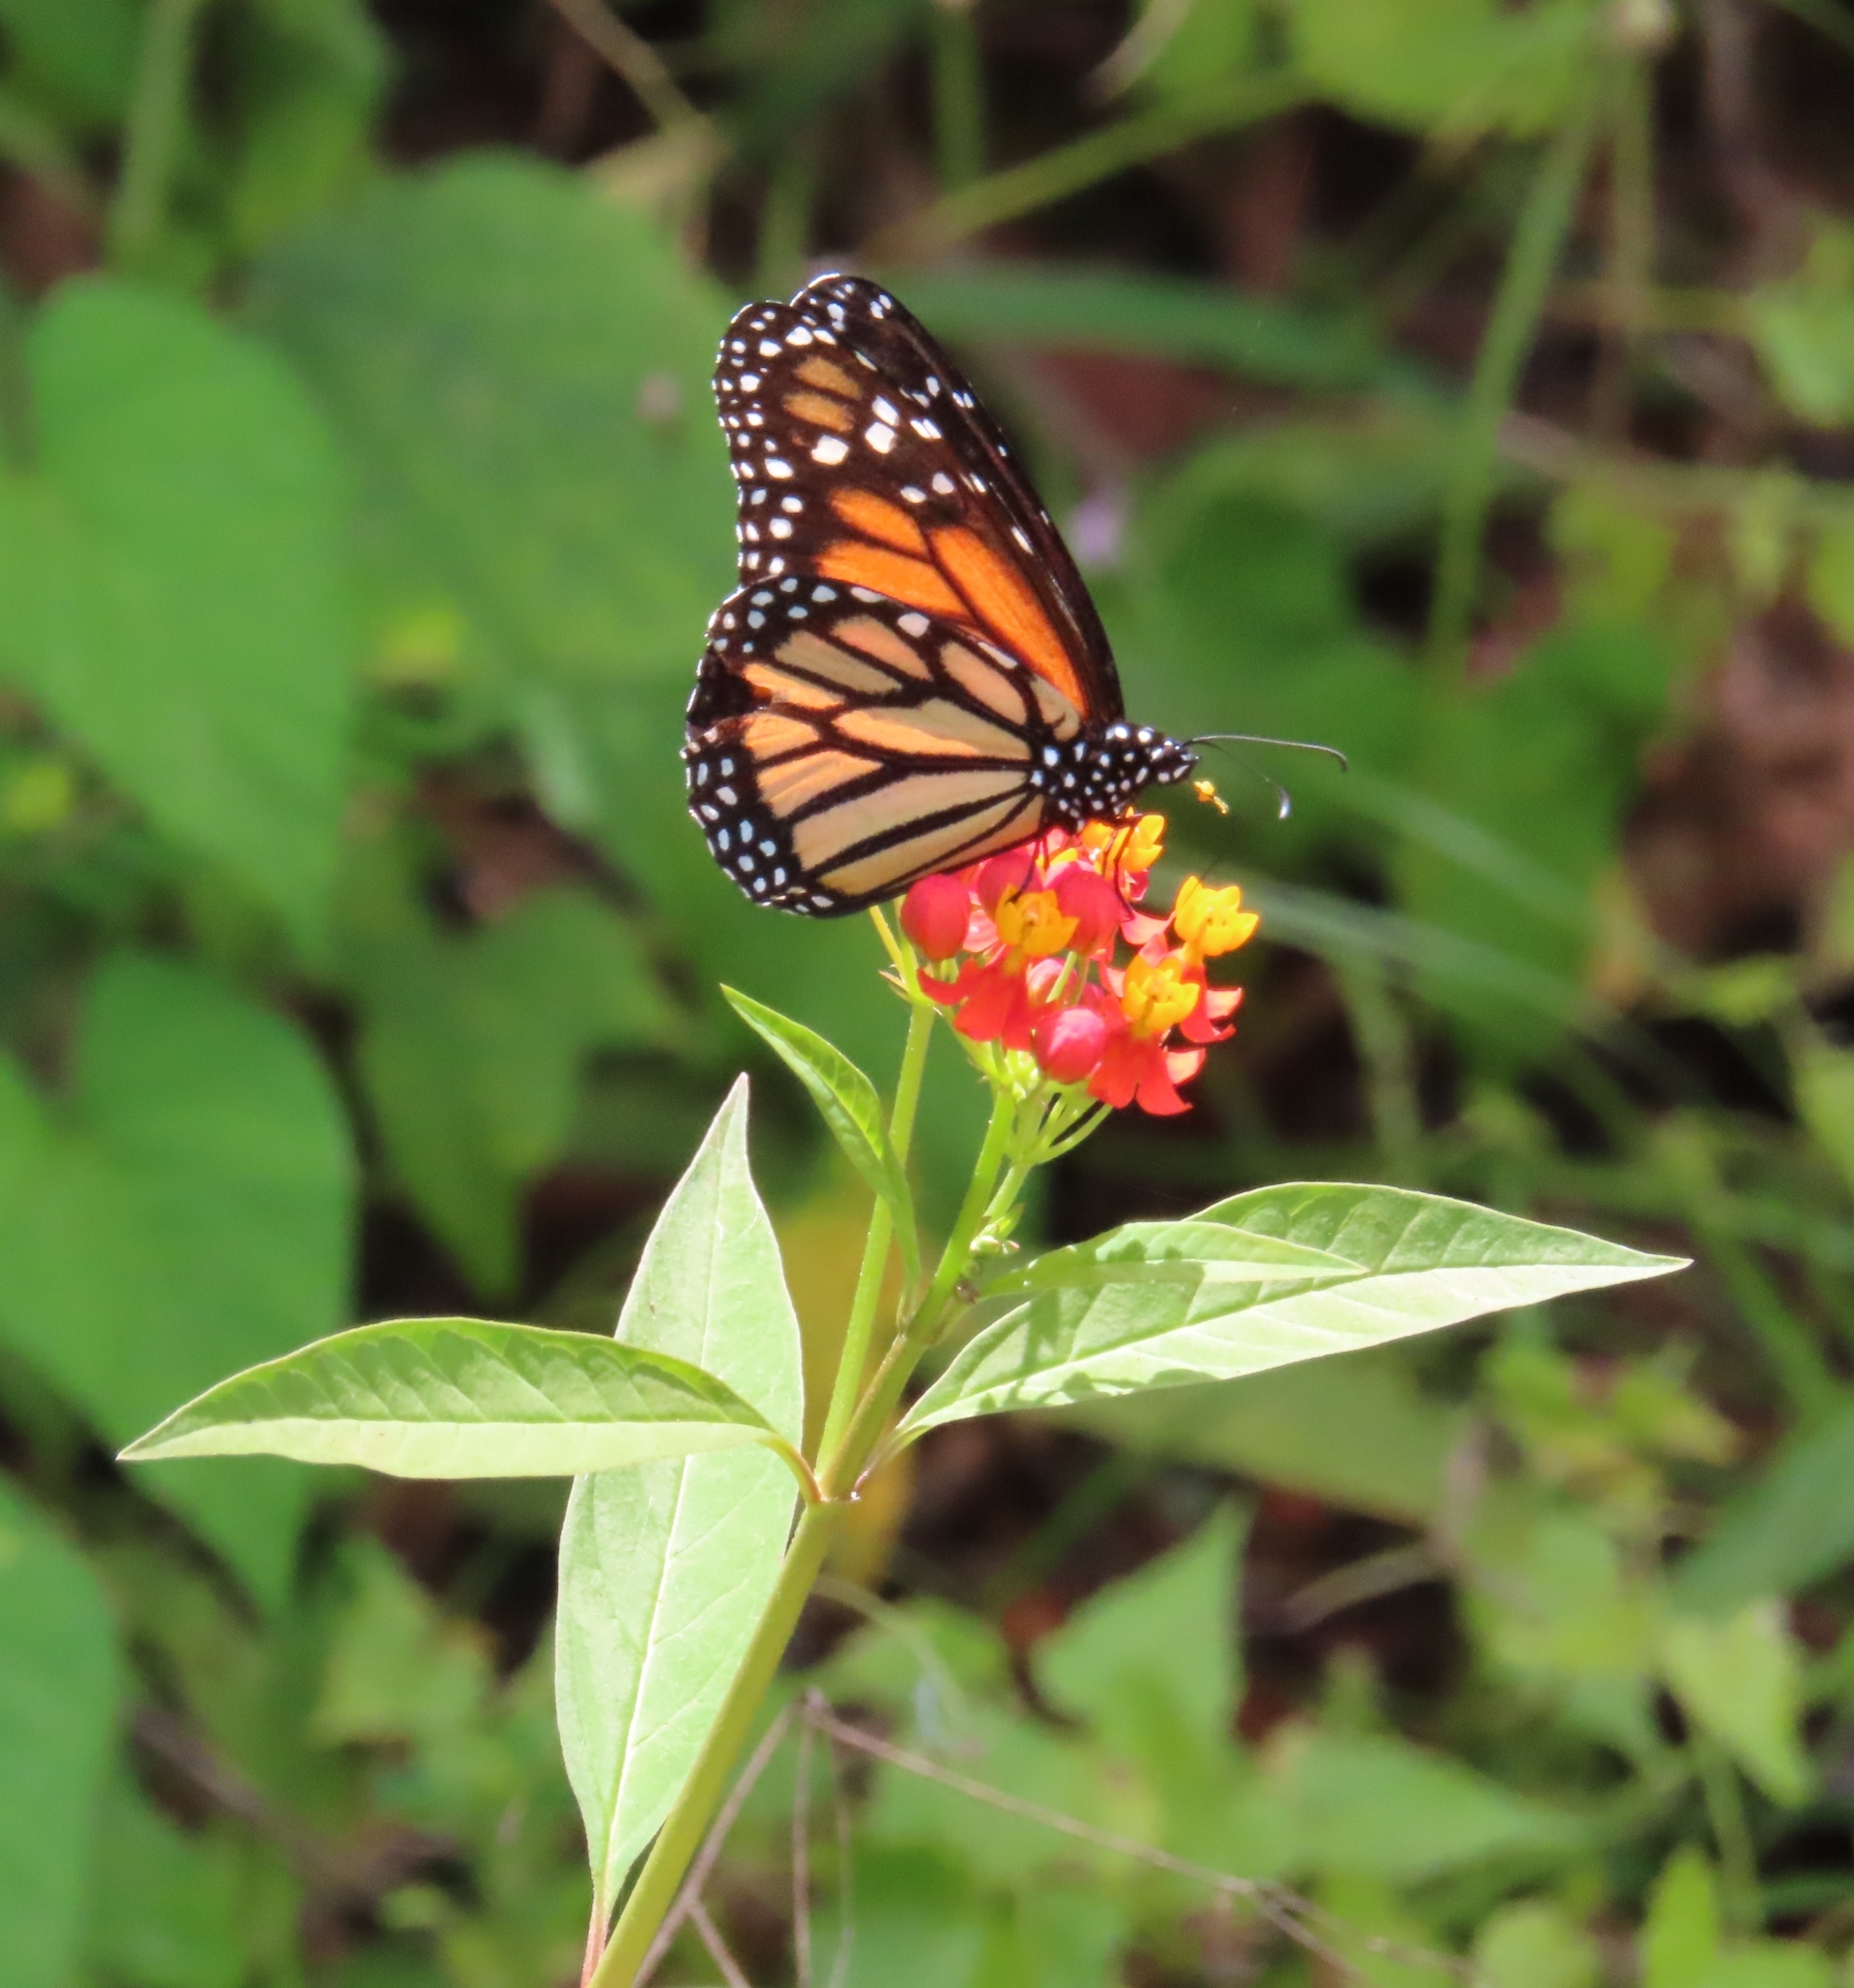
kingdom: Animalia
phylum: Arthropoda
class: Insecta
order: Lepidoptera
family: Nymphalidae
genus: Danaus
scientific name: Danaus plexippus
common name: Monarch
